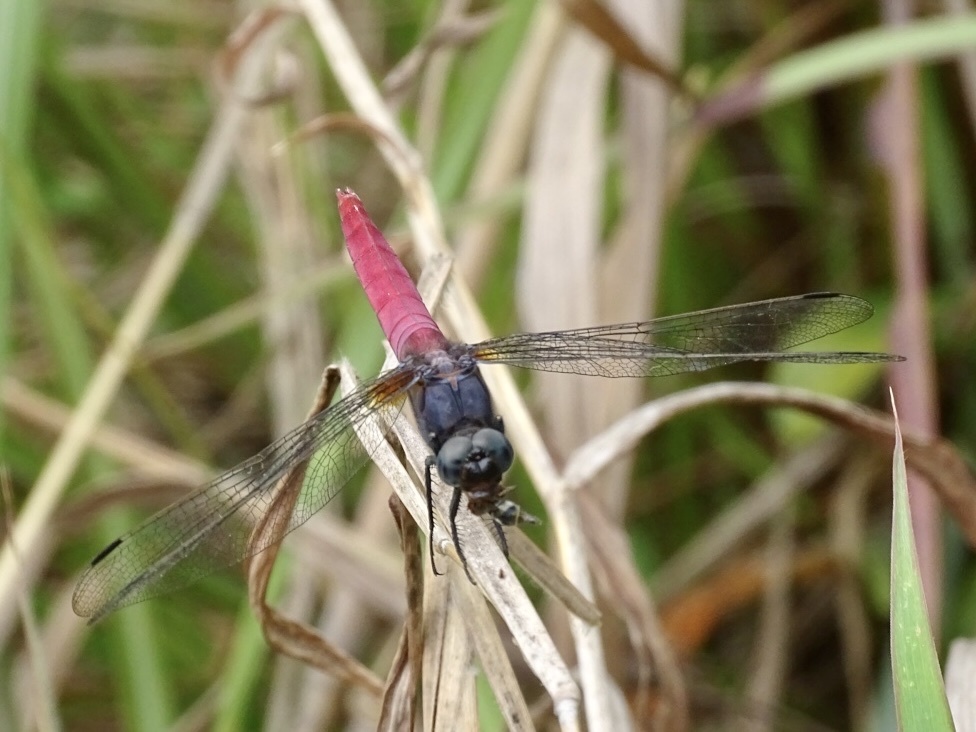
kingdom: Animalia
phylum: Arthropoda
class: Insecta
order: Odonata
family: Libellulidae
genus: Orthetrum
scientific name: Orthetrum pruinosum
